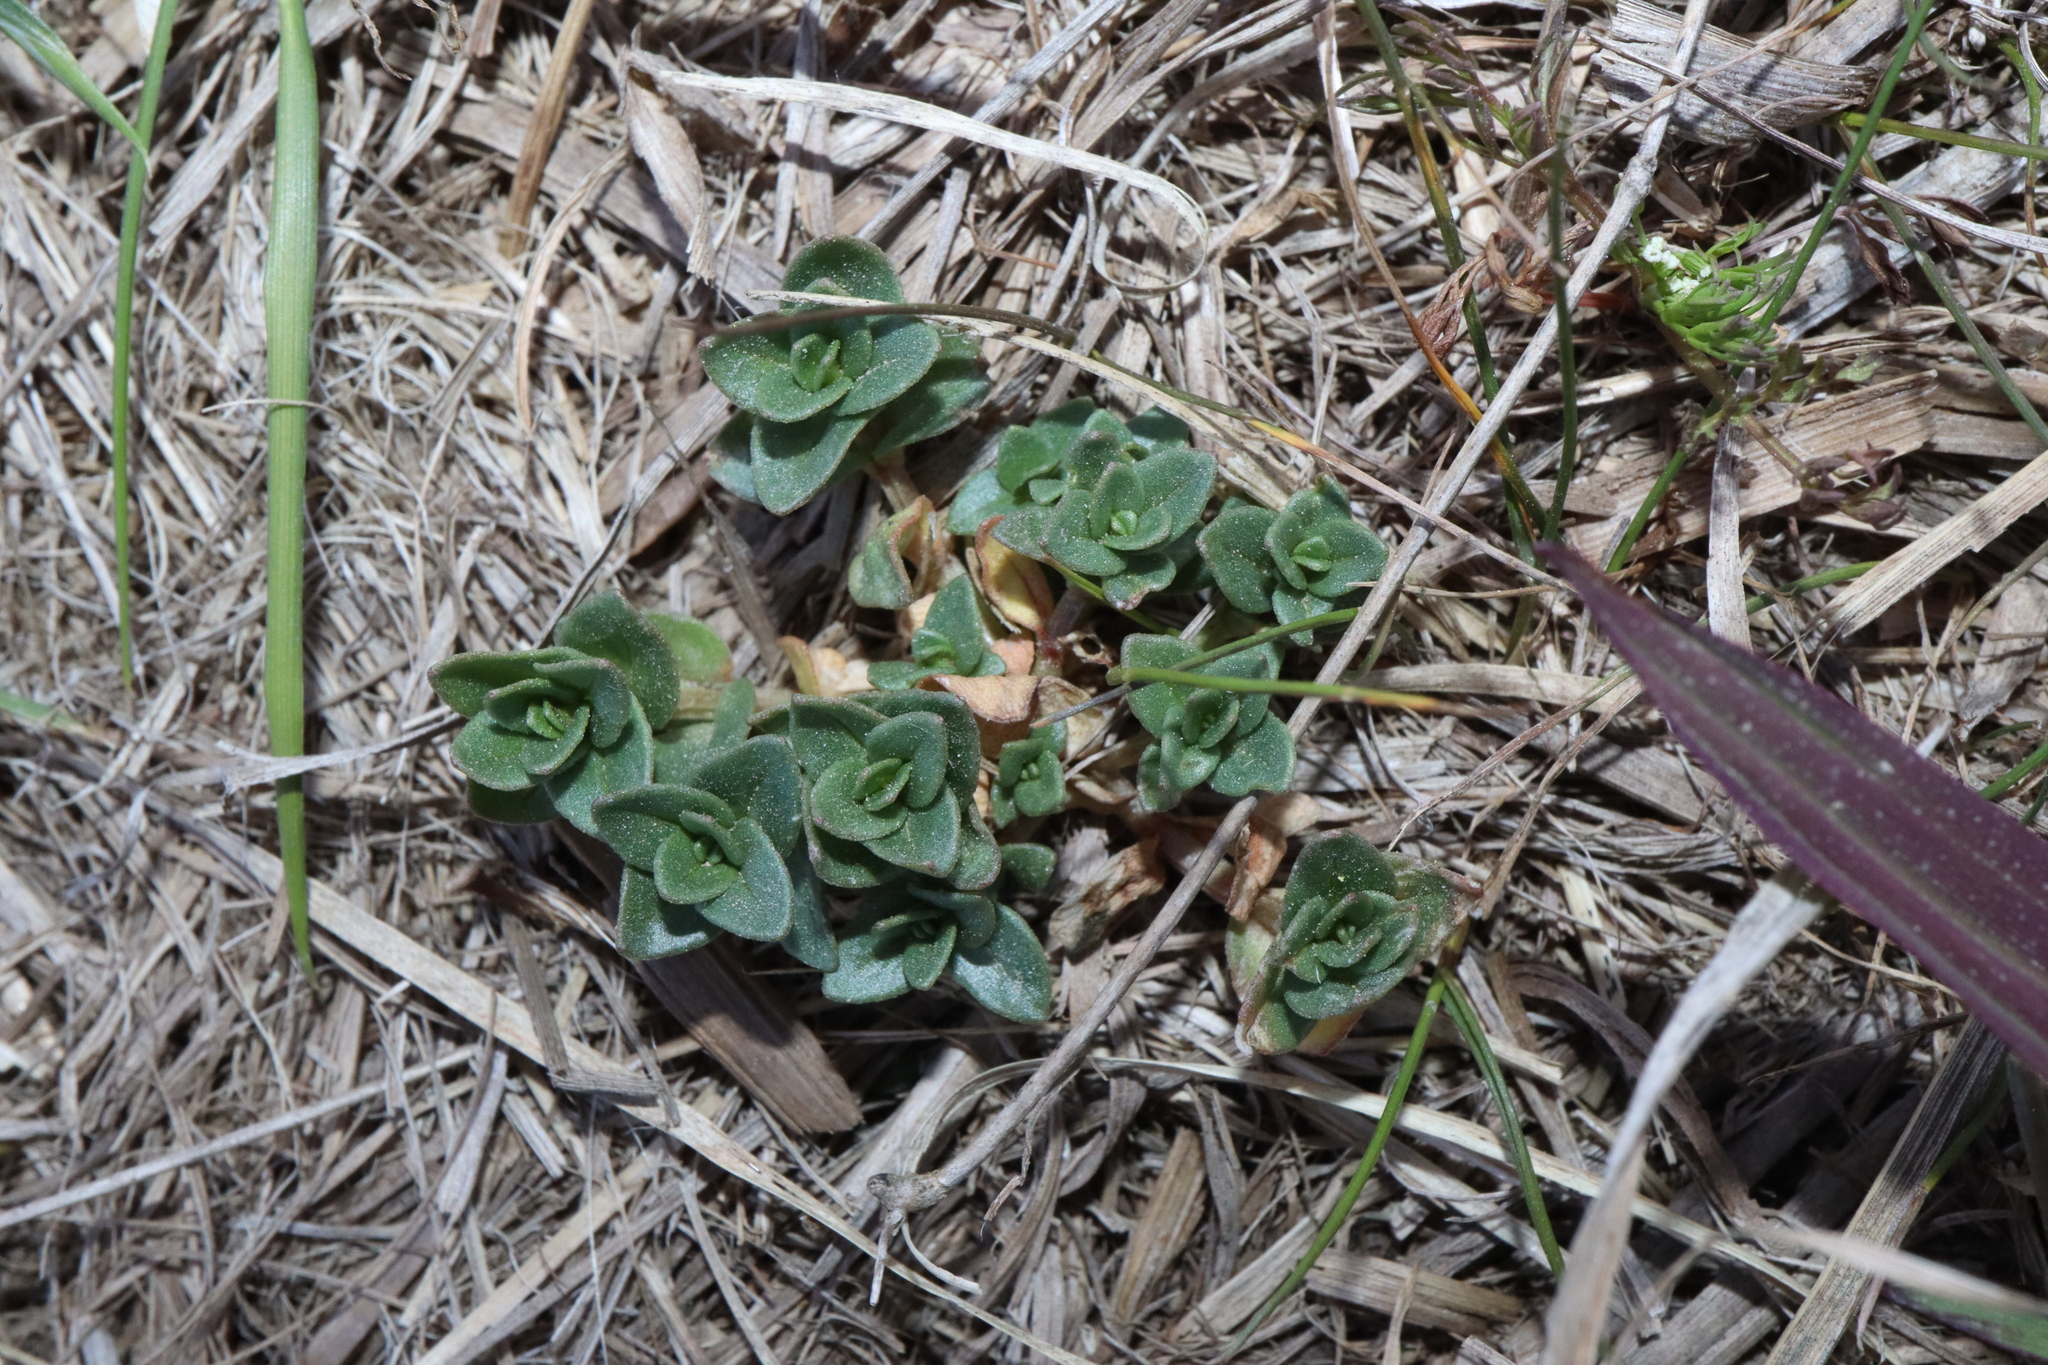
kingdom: Plantae
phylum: Tracheophyta
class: Magnoliopsida
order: Ericales
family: Primulaceae
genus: Lysimachia
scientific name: Lysimachia arvensis
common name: Scarlet pimpernel
